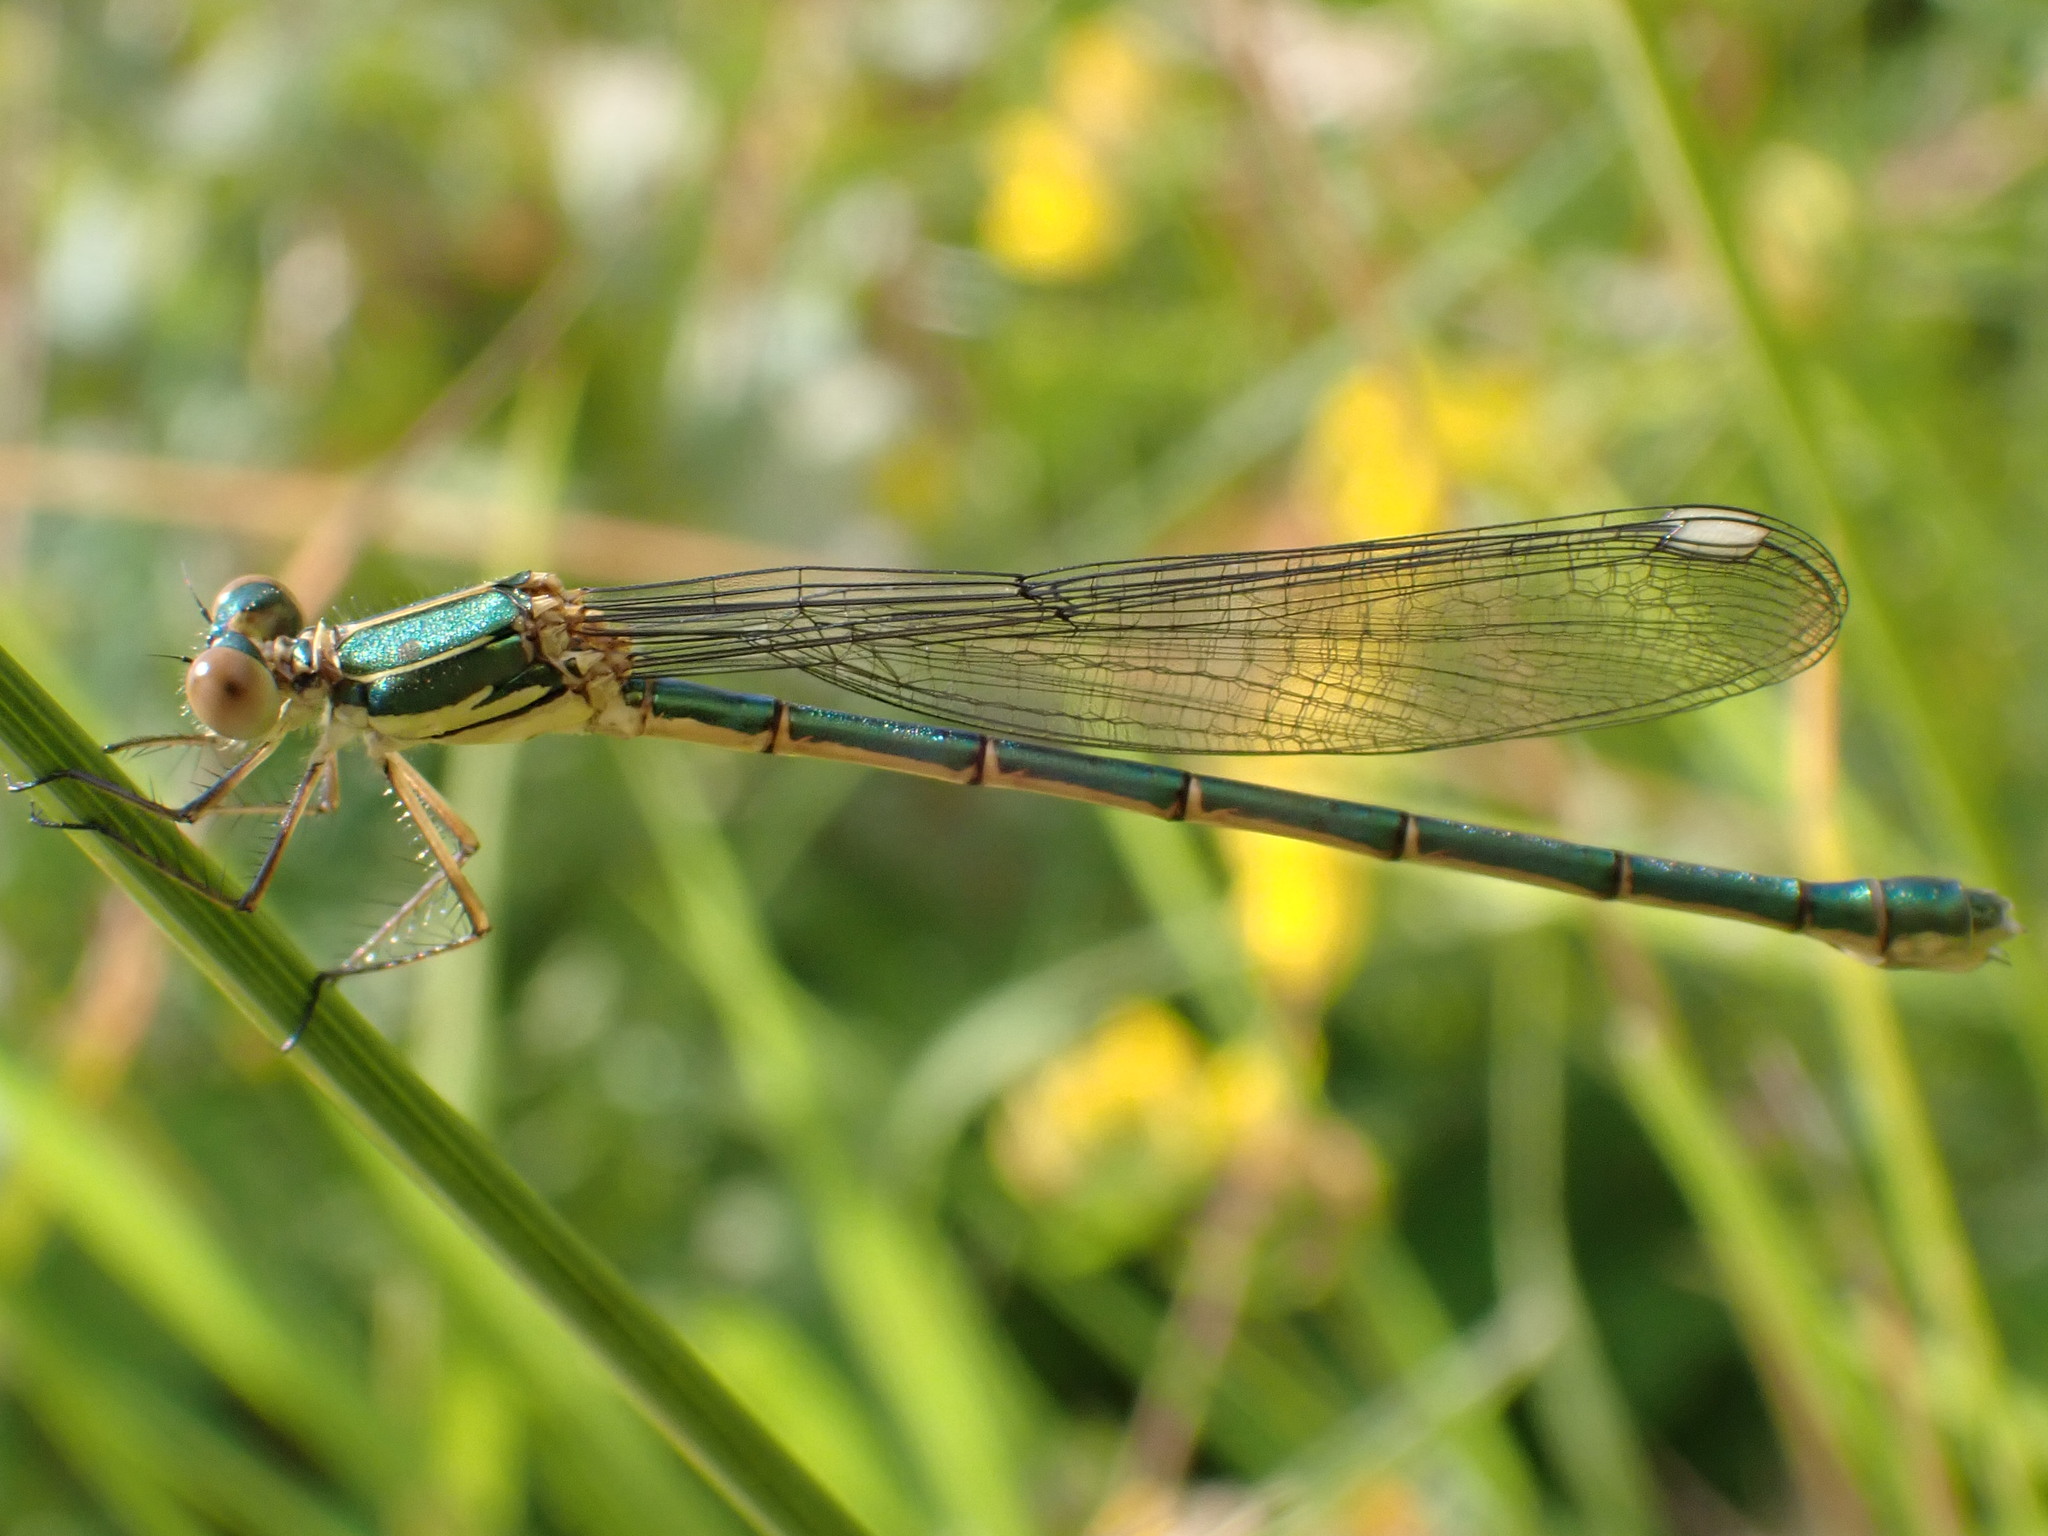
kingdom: Animalia
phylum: Arthropoda
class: Insecta
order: Odonata
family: Lestidae
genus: Chalcolestes
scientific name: Chalcolestes viridis
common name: Green emerald damselfly
